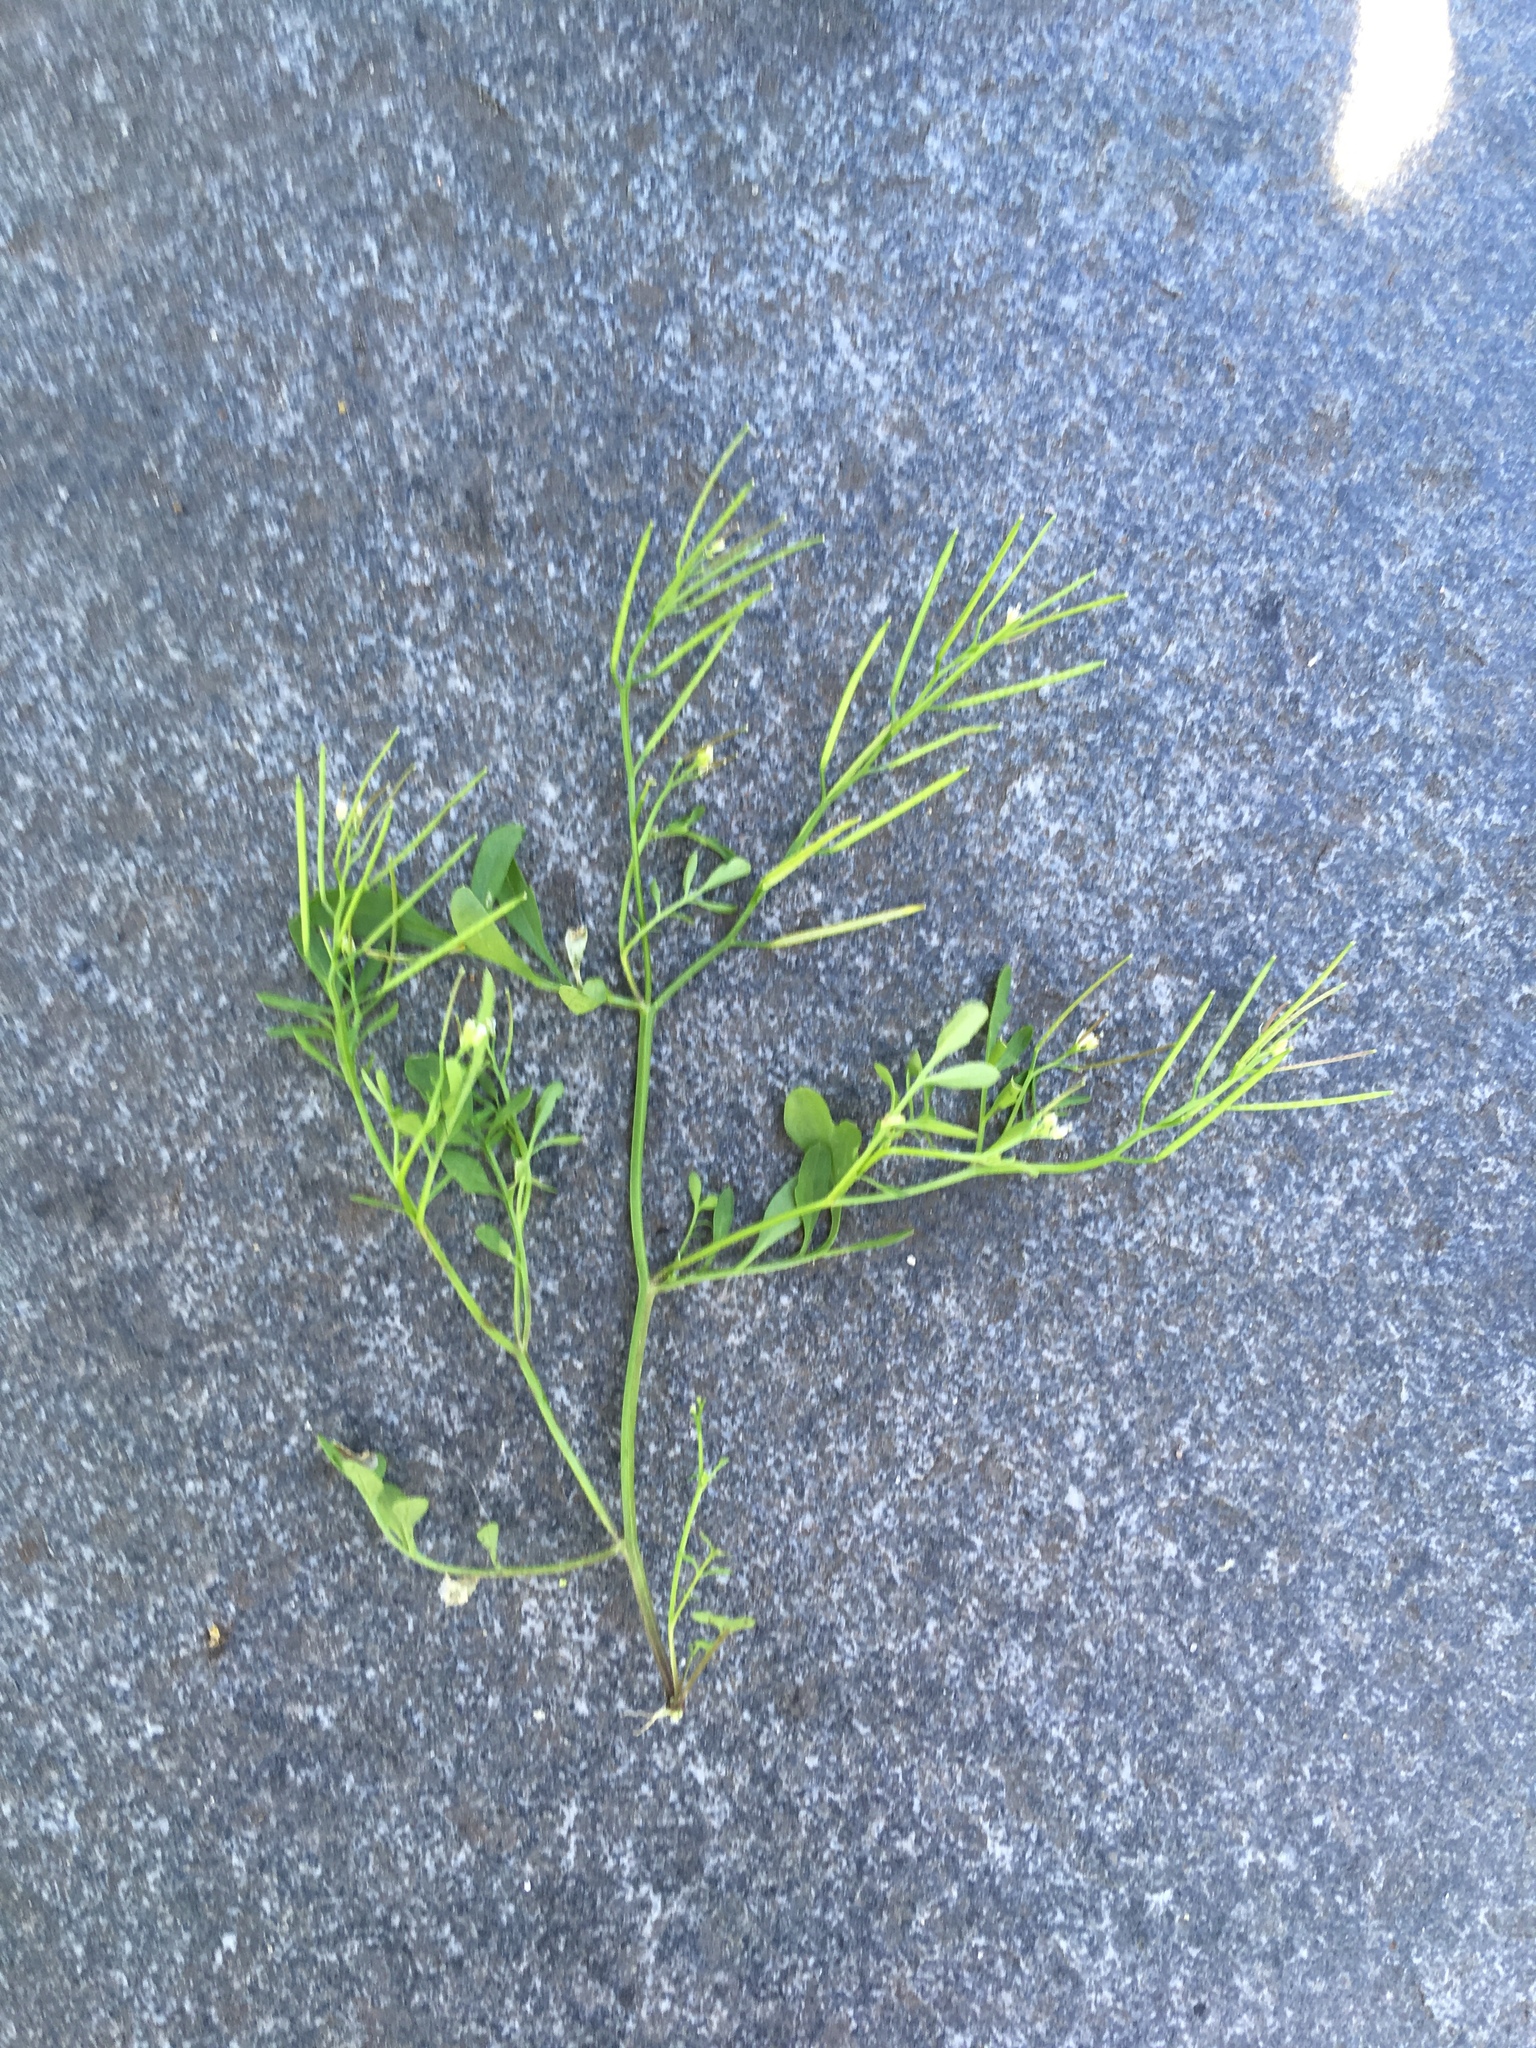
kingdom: Plantae
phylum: Tracheophyta
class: Magnoliopsida
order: Brassicales
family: Brassicaceae
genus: Cardamine
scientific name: Cardamine hirsuta
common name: Hairy bittercress
